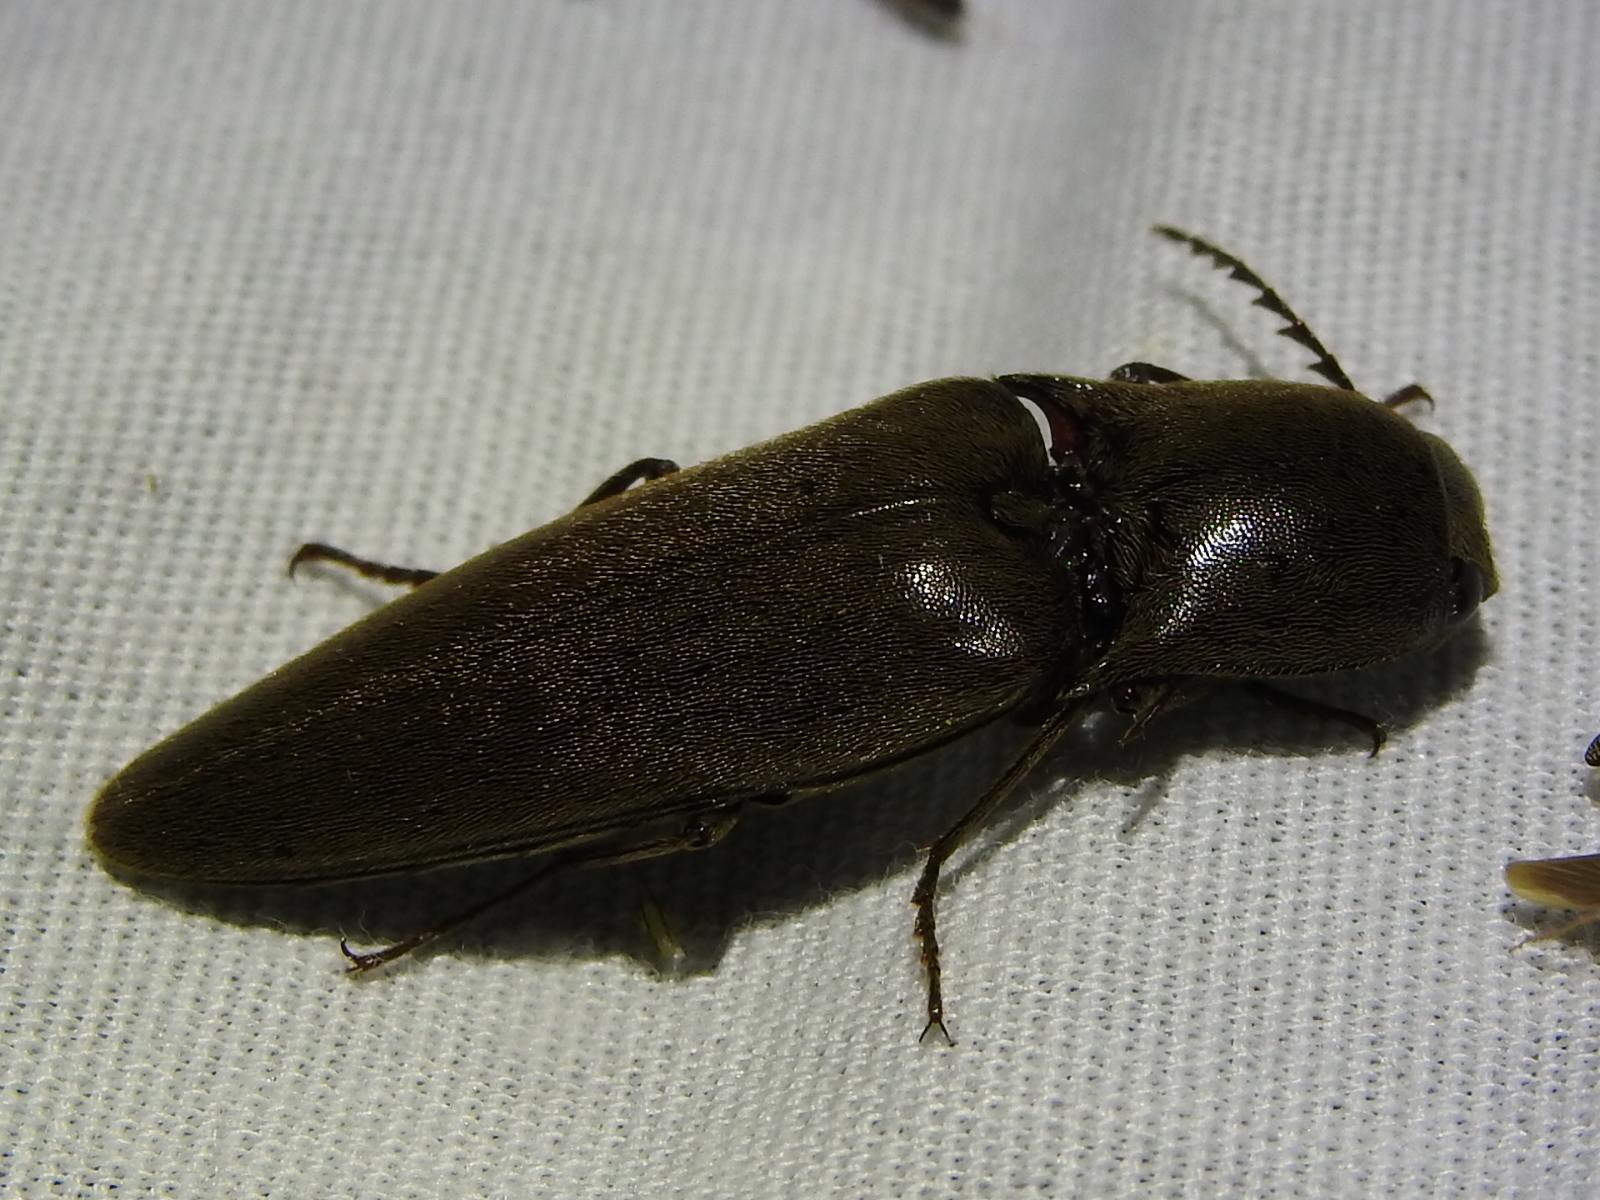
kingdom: Animalia
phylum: Arthropoda
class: Insecta
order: Coleoptera
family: Elateridae
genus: Orthostethus
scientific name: Orthostethus infuscatus
